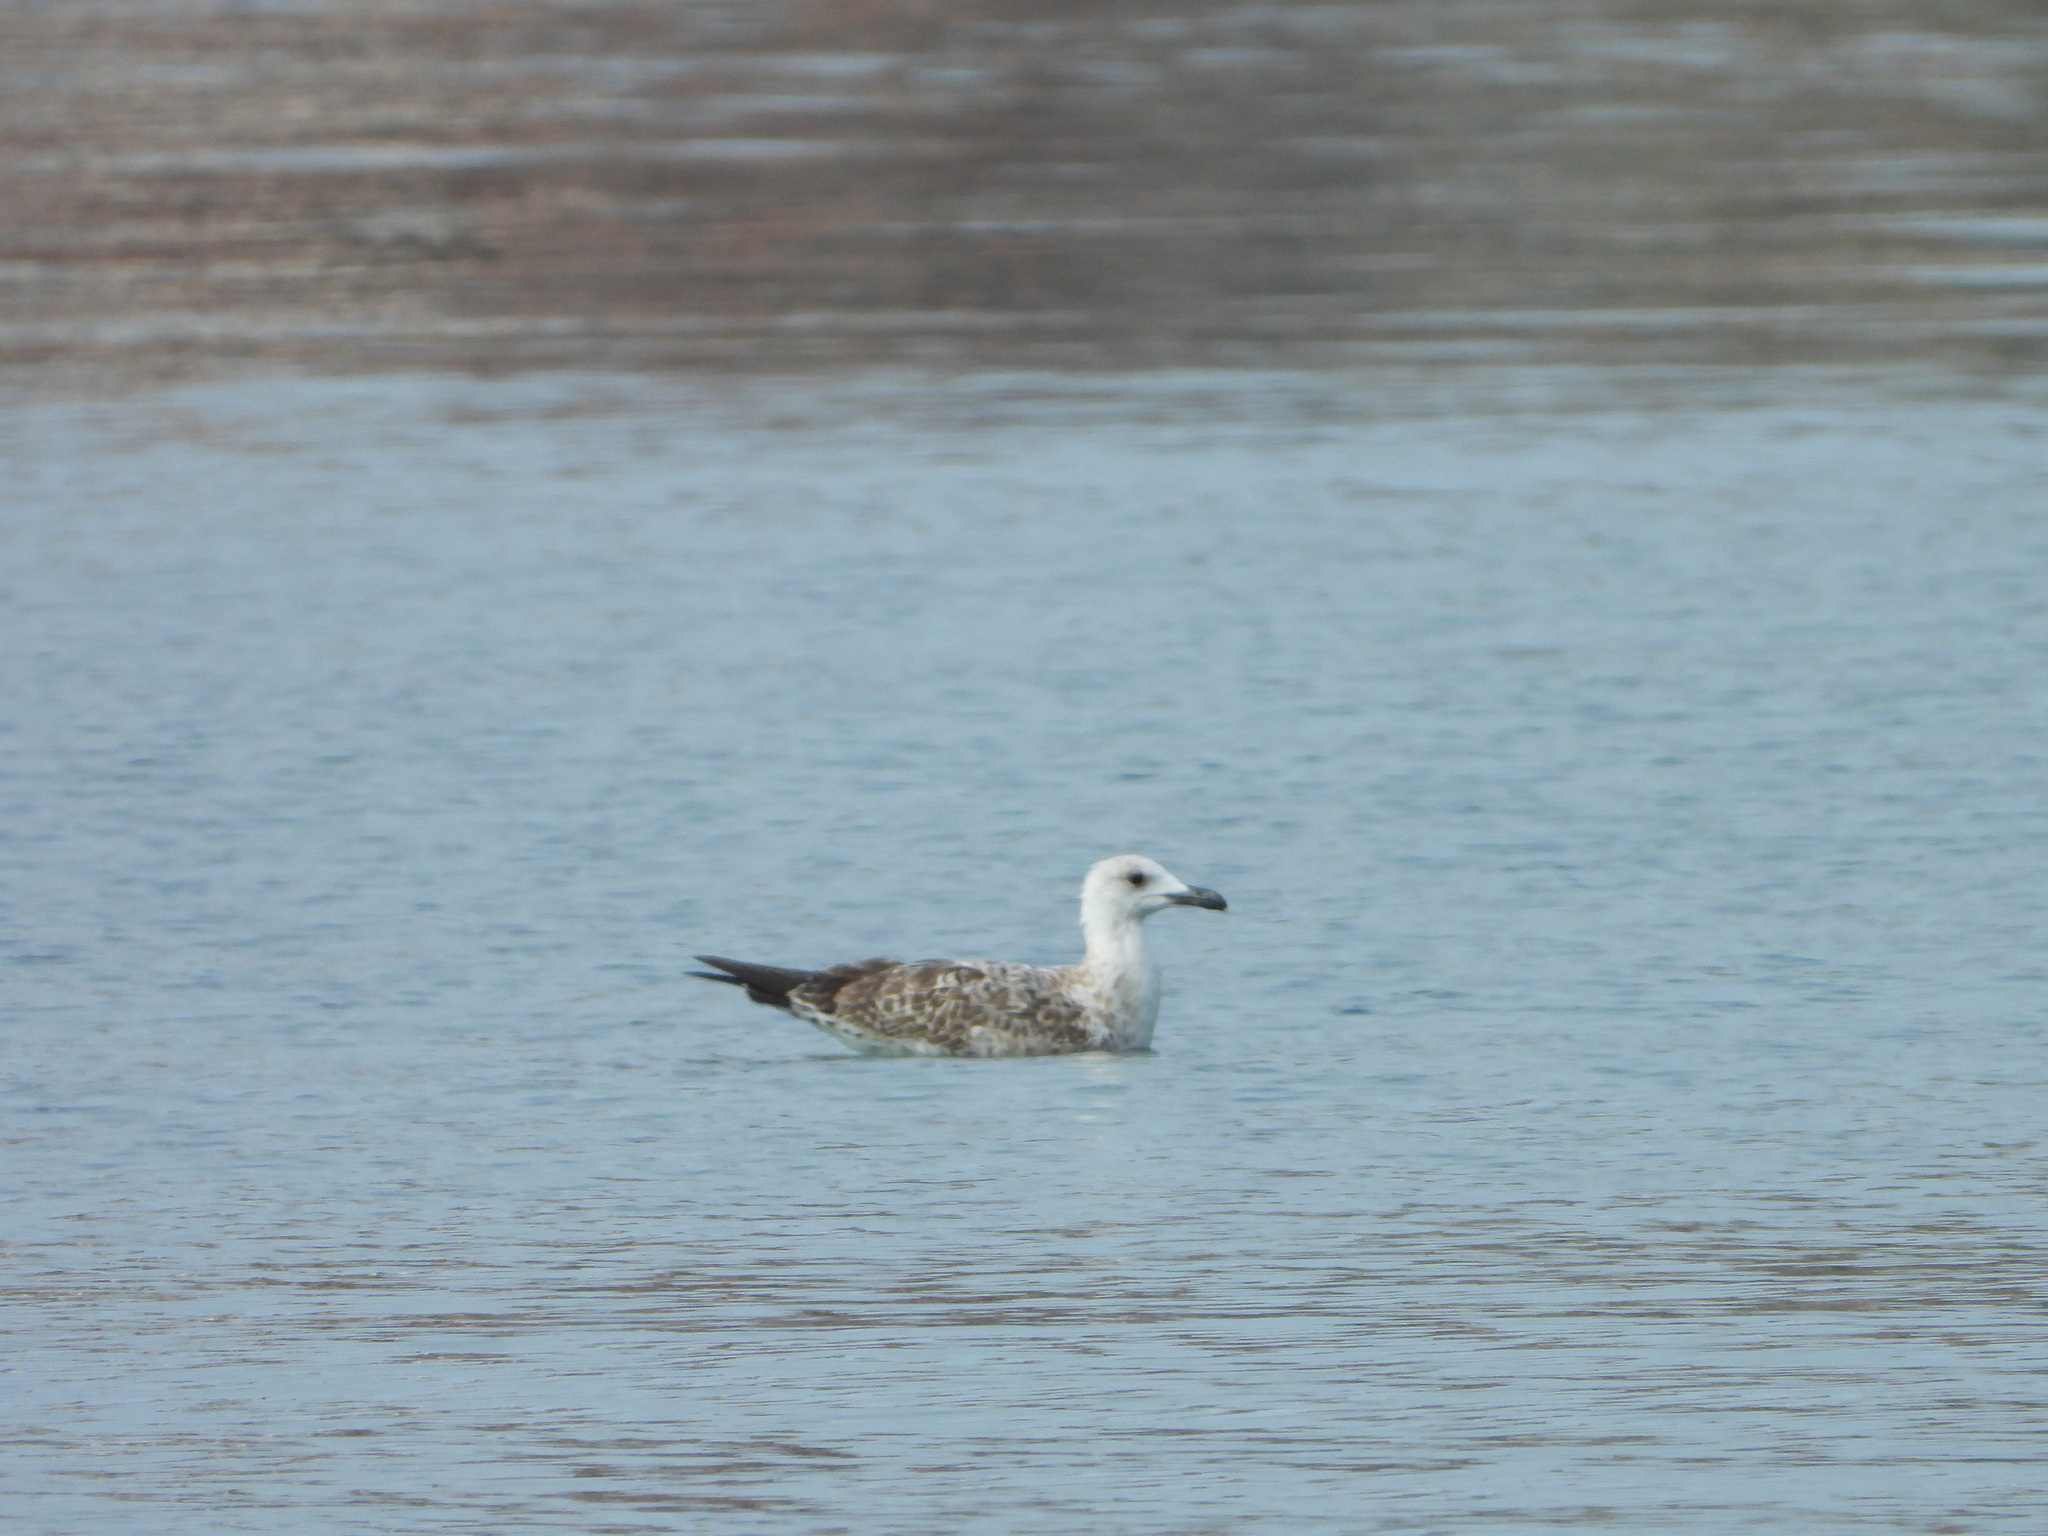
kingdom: Animalia
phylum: Chordata
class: Aves
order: Charadriiformes
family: Laridae
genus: Larus
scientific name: Larus michahellis
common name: Yellow-legged gull
